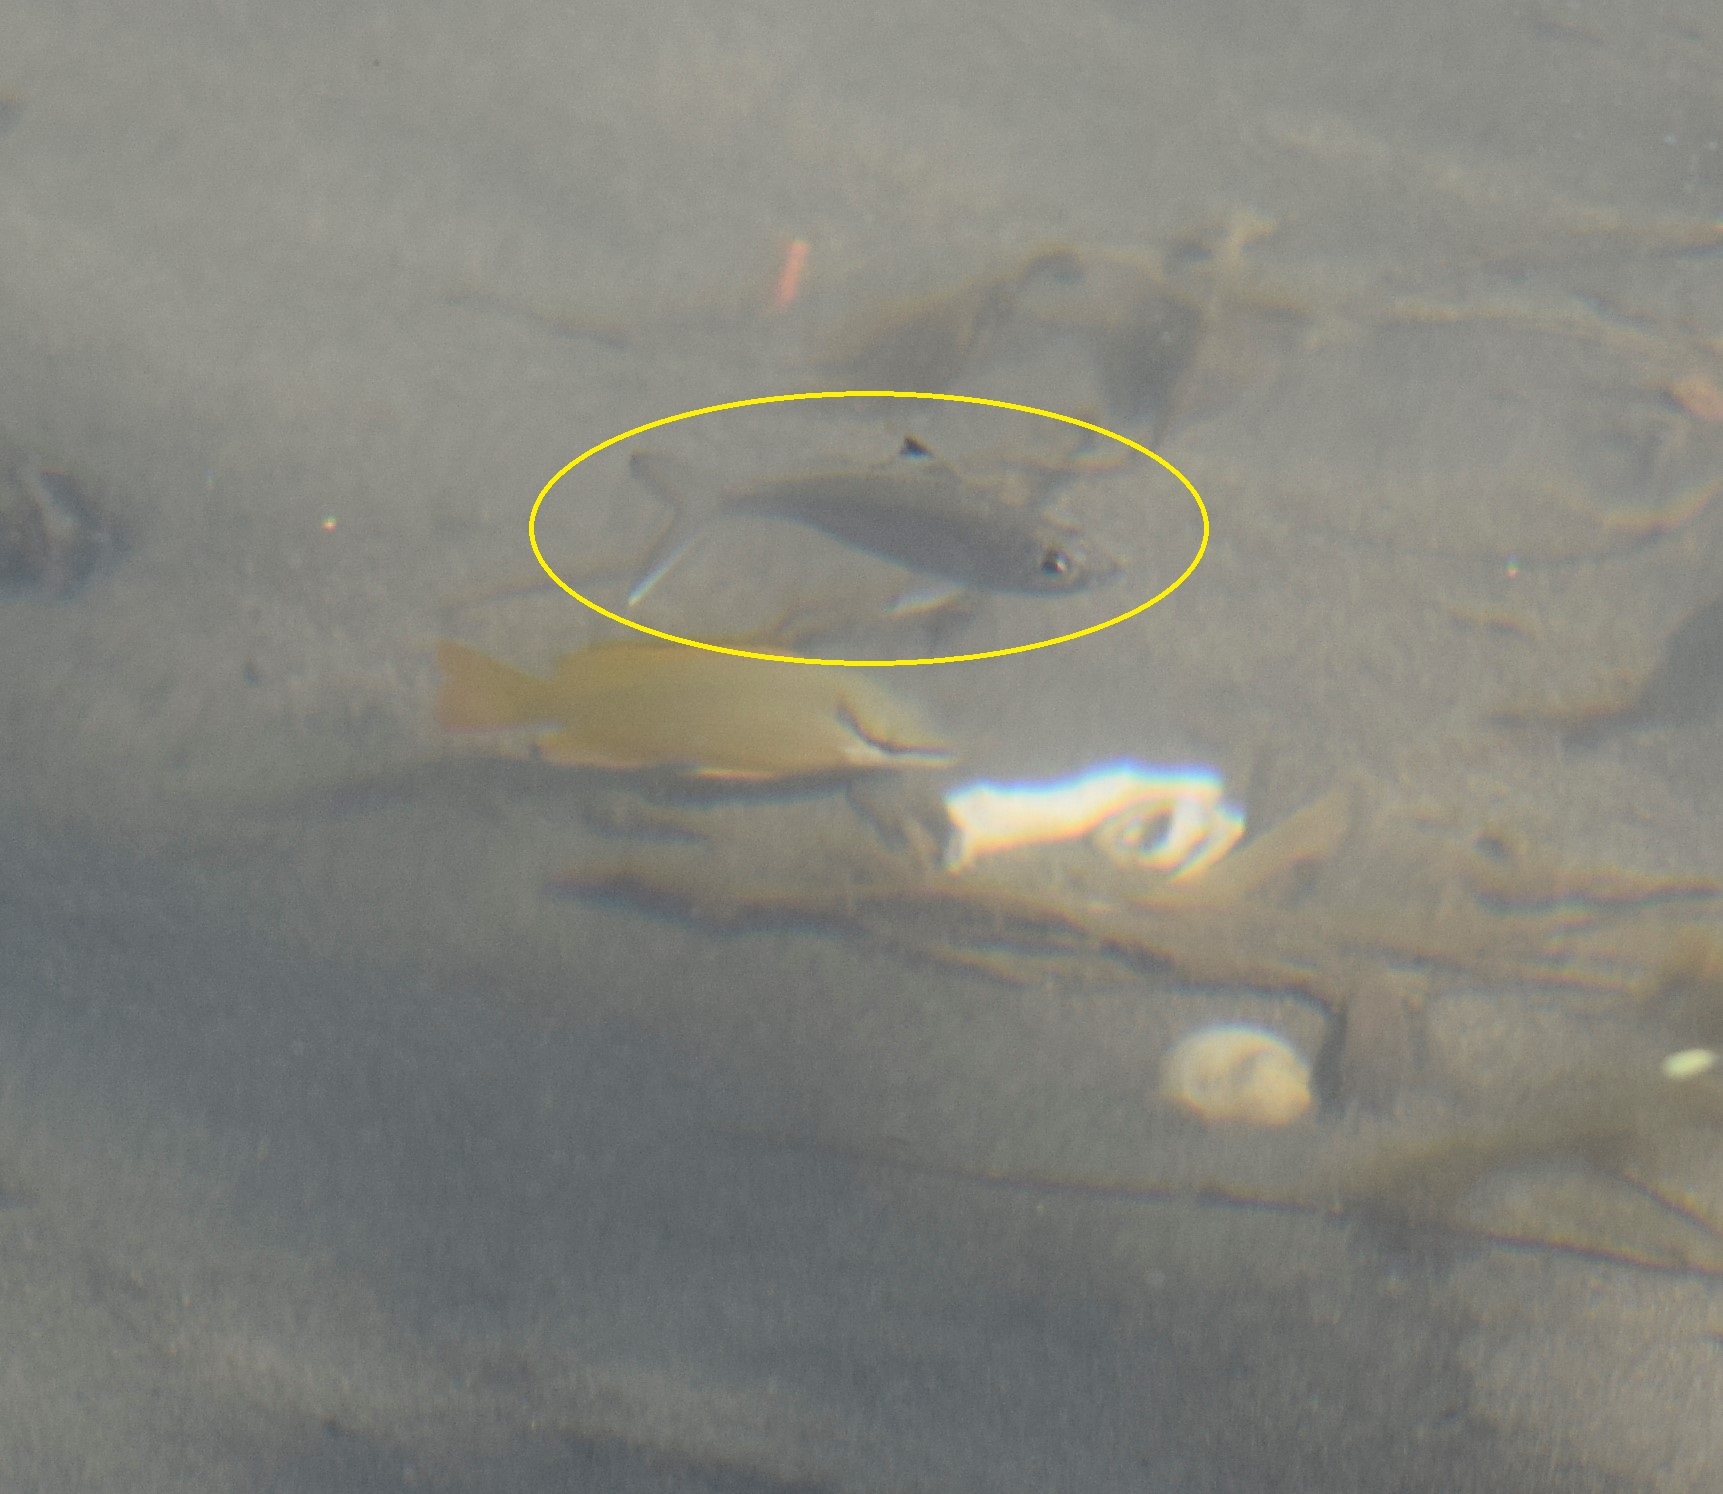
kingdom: Animalia
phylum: Chordata
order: Perciformes
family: Gerreidae
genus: Eucinostomus
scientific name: Eucinostomus melanopterus
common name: Flagfin mojarra
